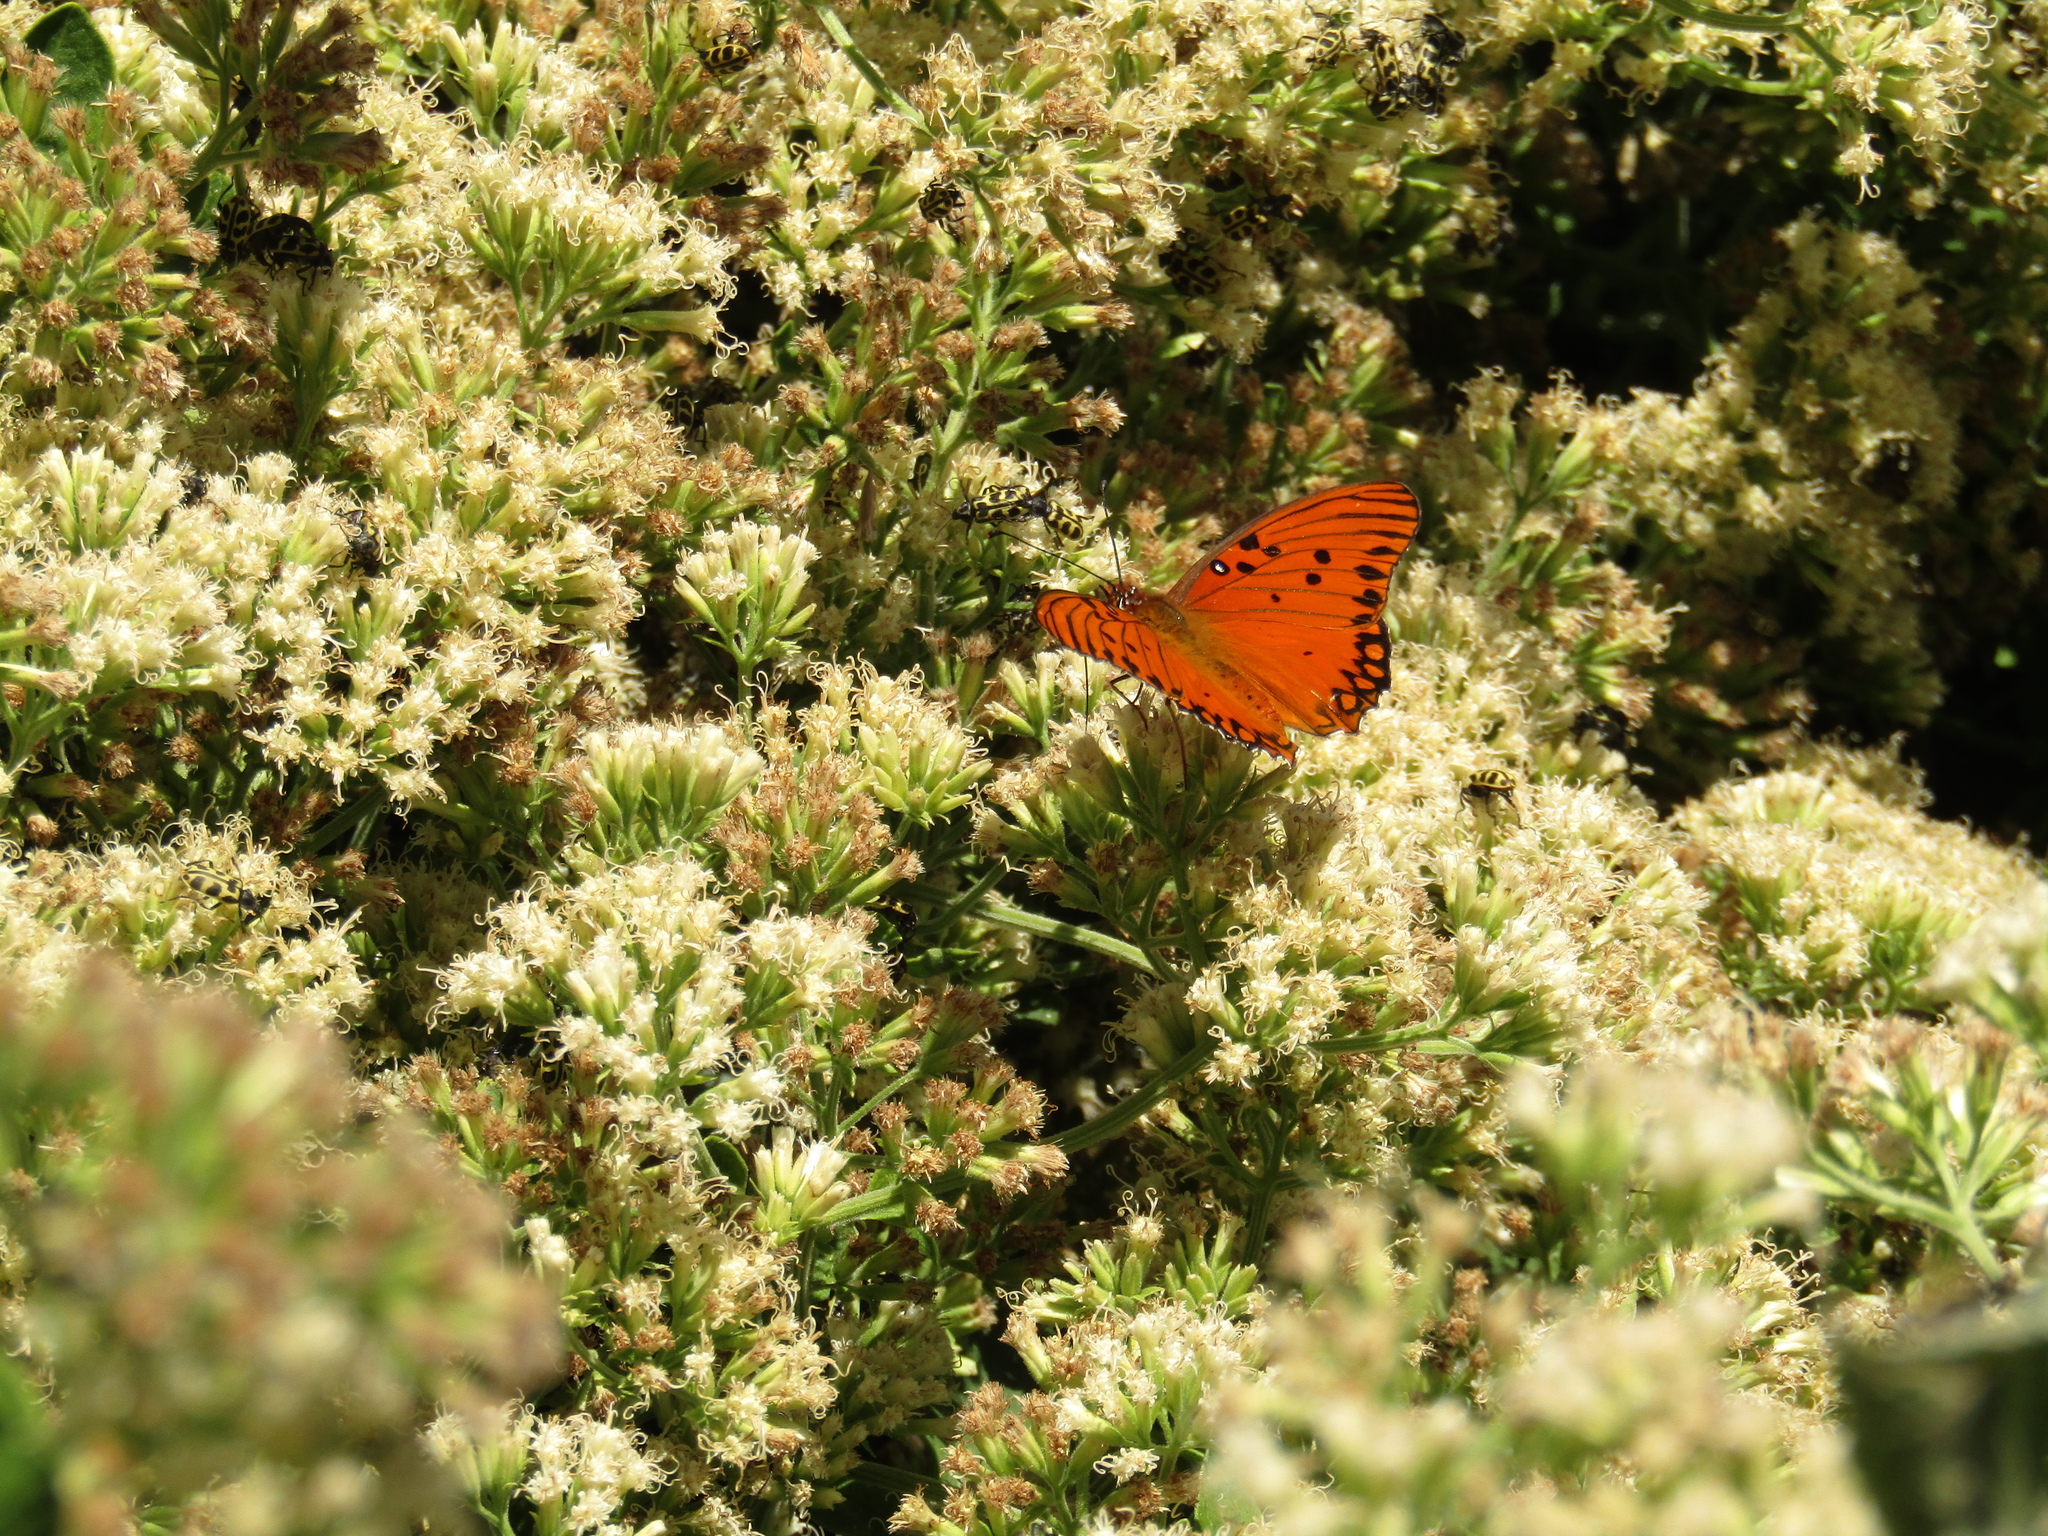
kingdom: Animalia
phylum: Arthropoda
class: Insecta
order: Lepidoptera
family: Nymphalidae
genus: Dione
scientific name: Dione vanillae
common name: Gulf fritillary
